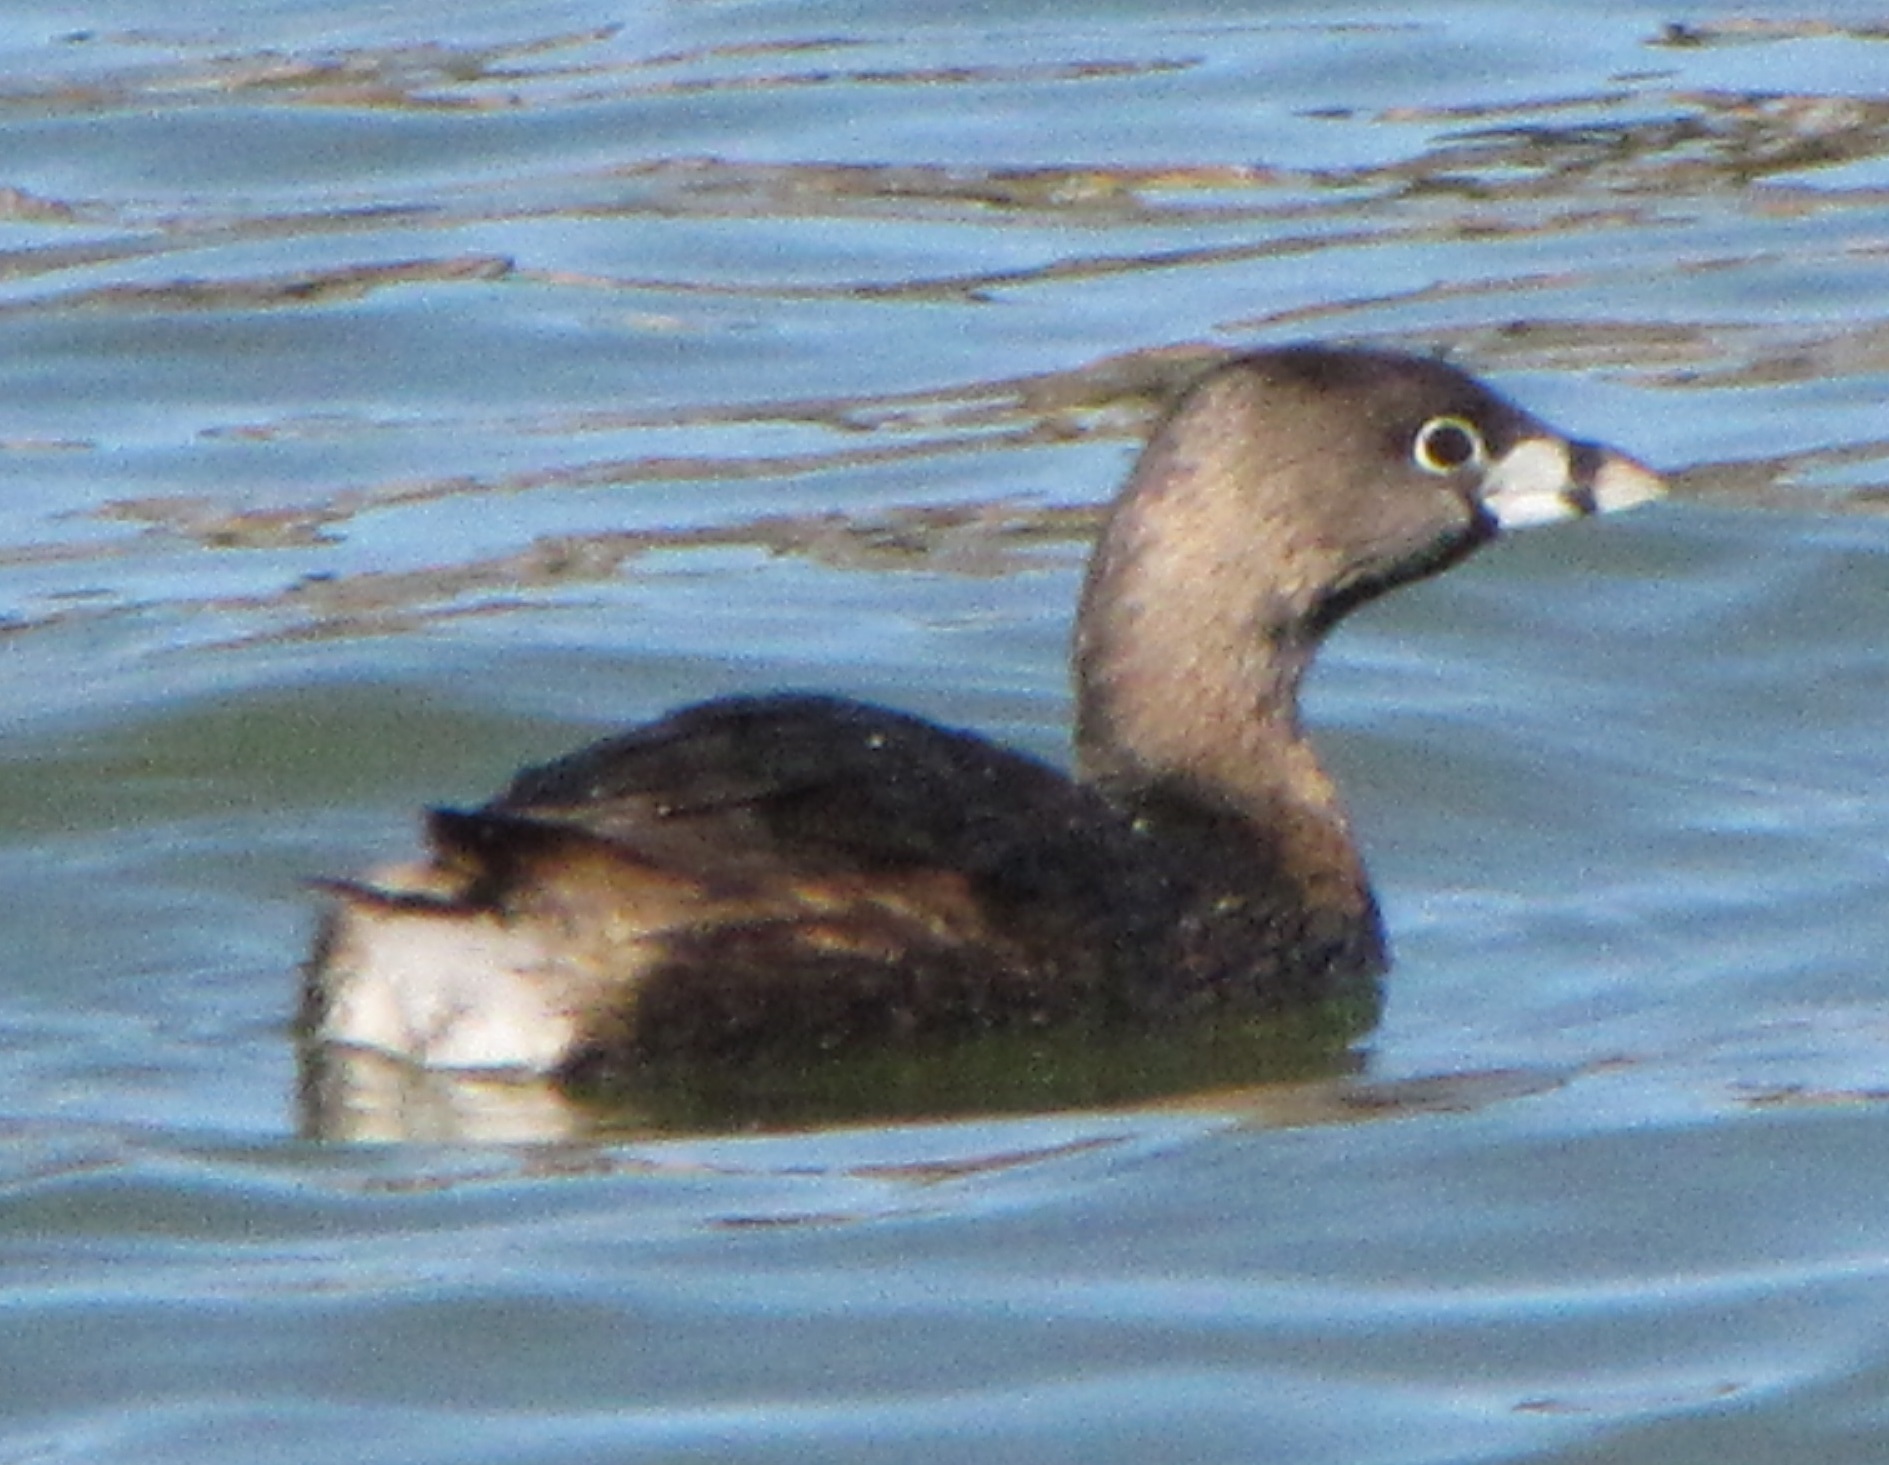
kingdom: Animalia
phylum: Chordata
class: Aves
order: Podicipediformes
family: Podicipedidae
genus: Podilymbus
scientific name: Podilymbus podiceps
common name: Pied-billed grebe
